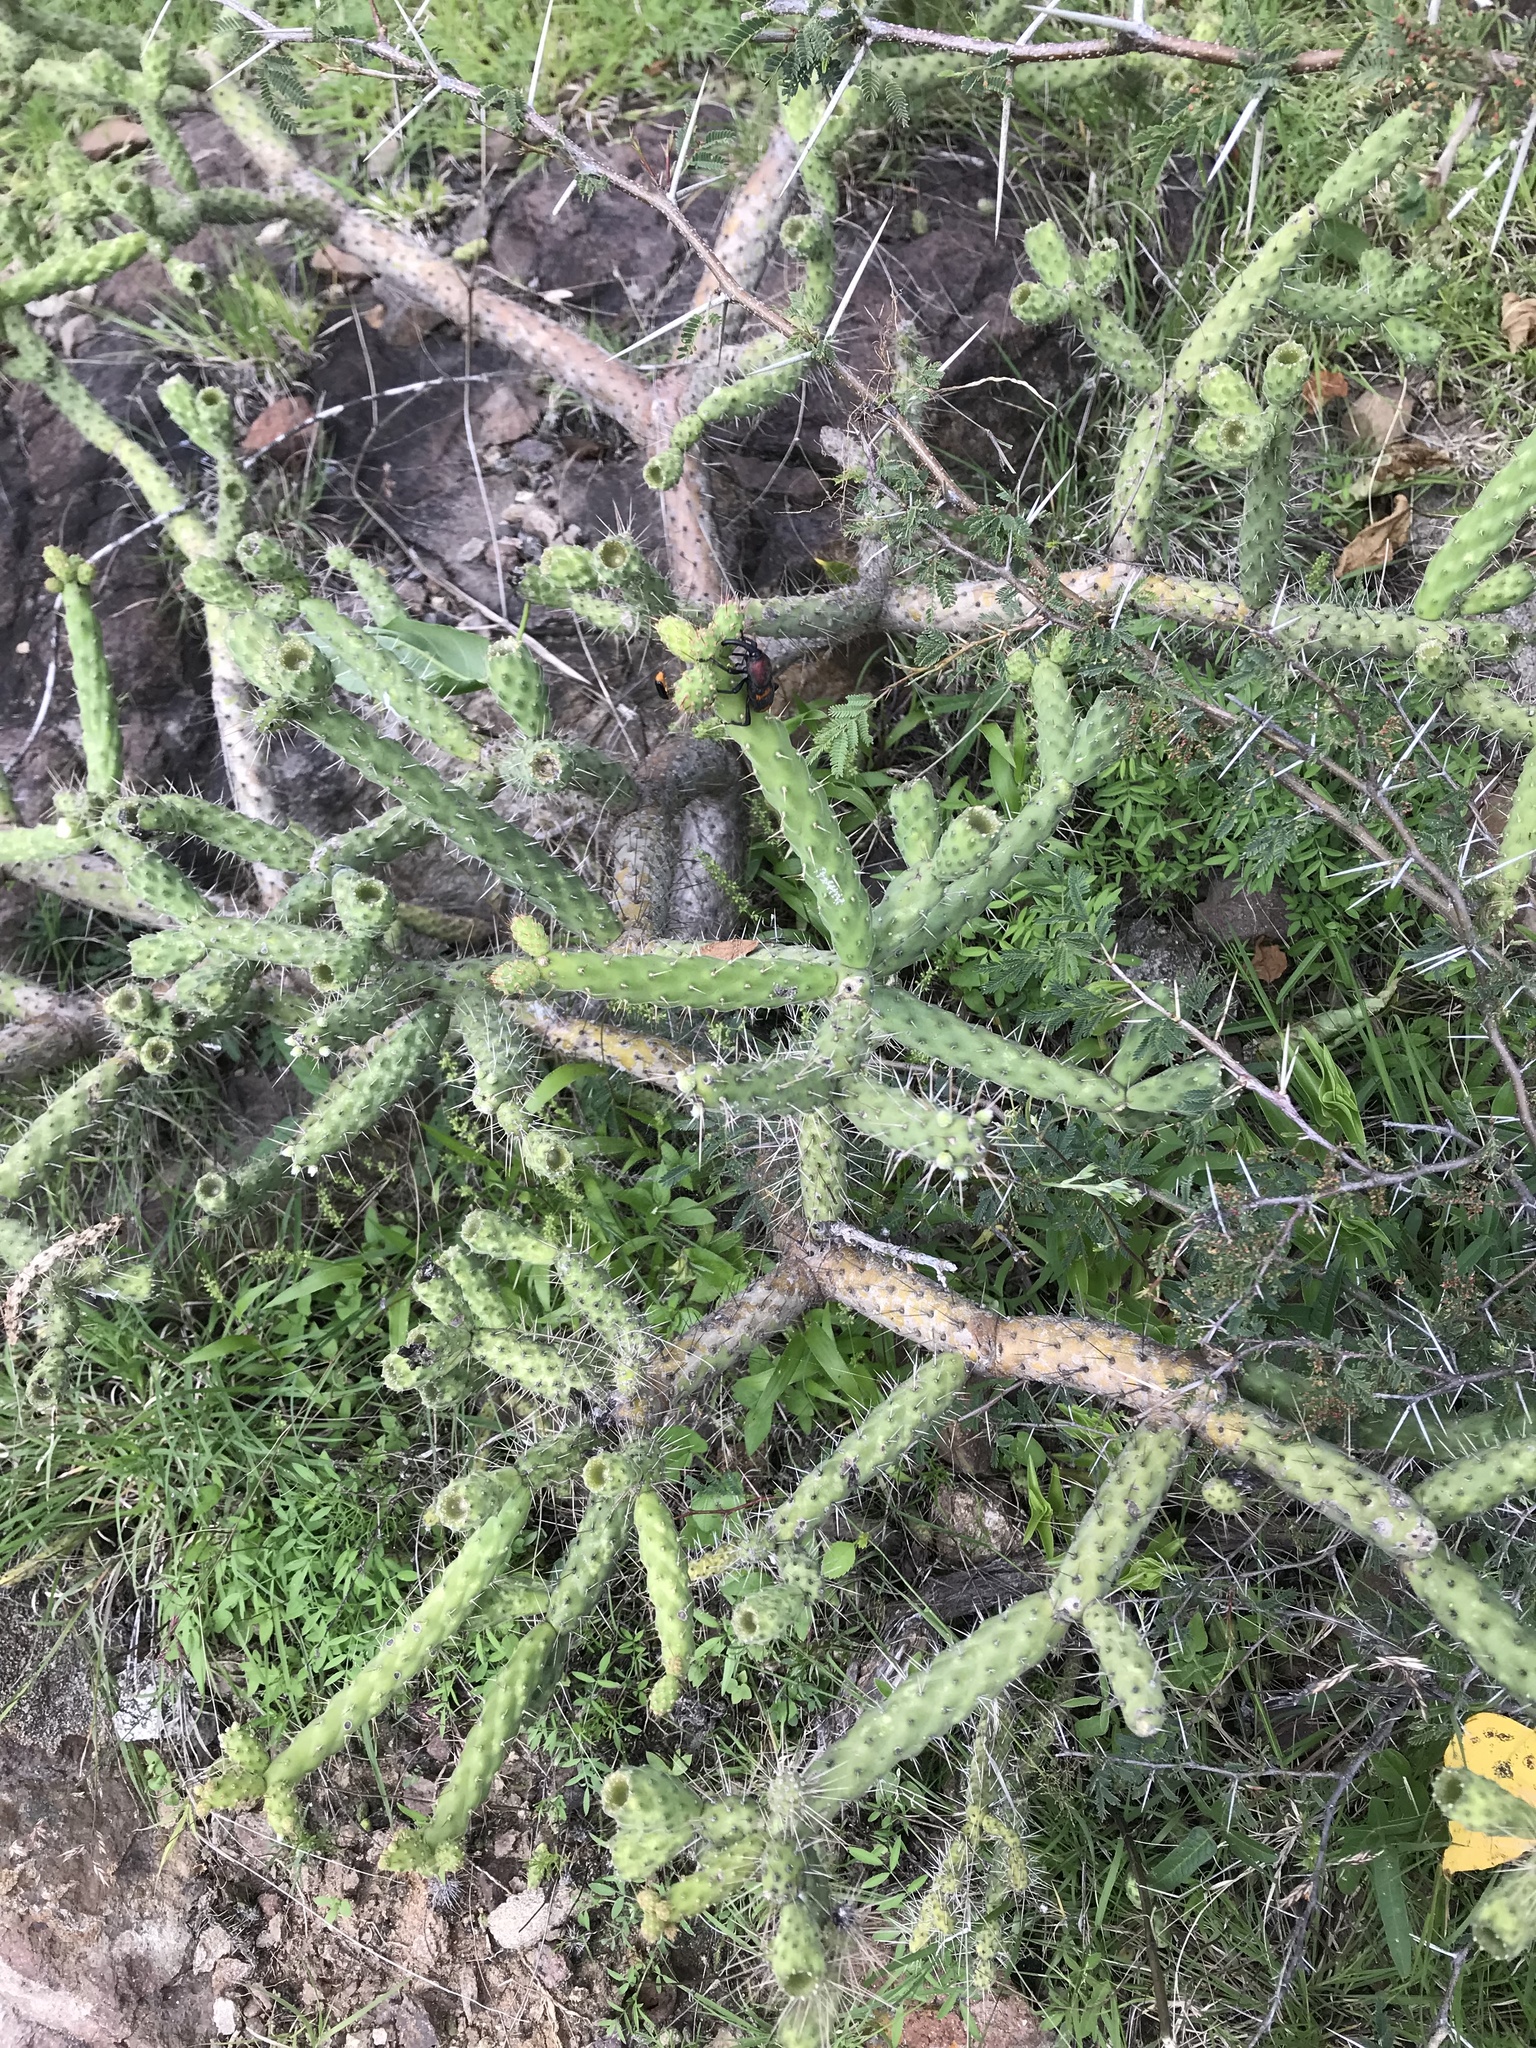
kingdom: Plantae
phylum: Tracheophyta
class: Magnoliopsida
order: Caryophyllales
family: Cactaceae
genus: Opuntia
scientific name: Opuntia
